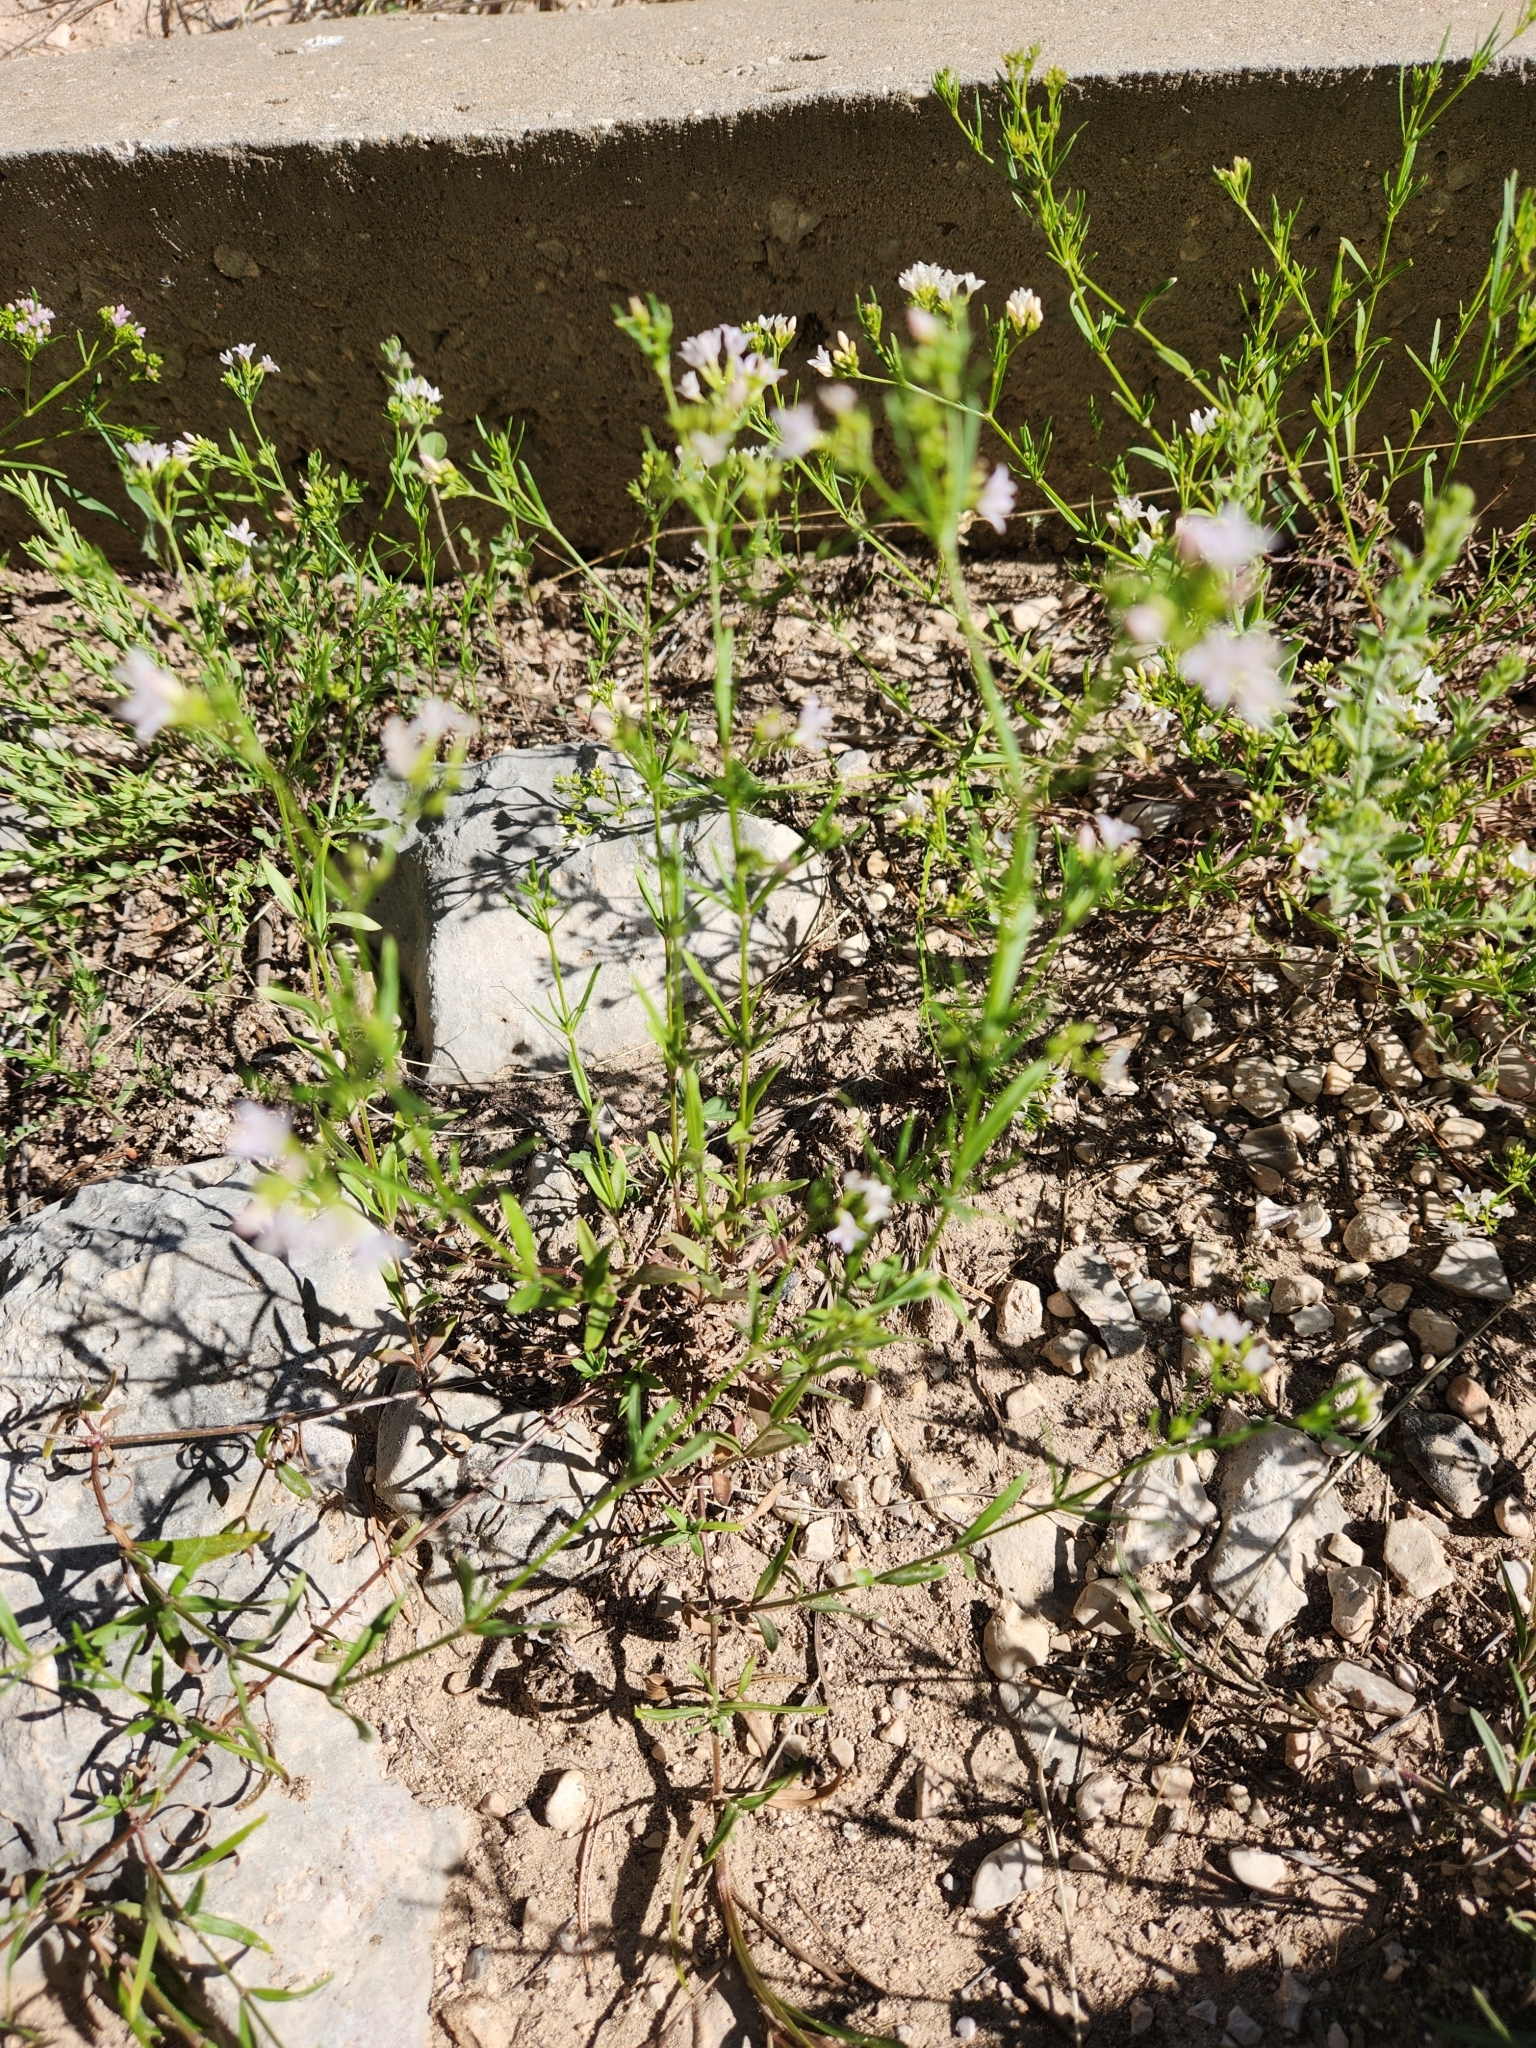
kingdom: Plantae
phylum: Tracheophyta
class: Magnoliopsida
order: Gentianales
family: Rubiaceae
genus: Stenaria
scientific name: Stenaria nigricans
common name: Diamondflowers
